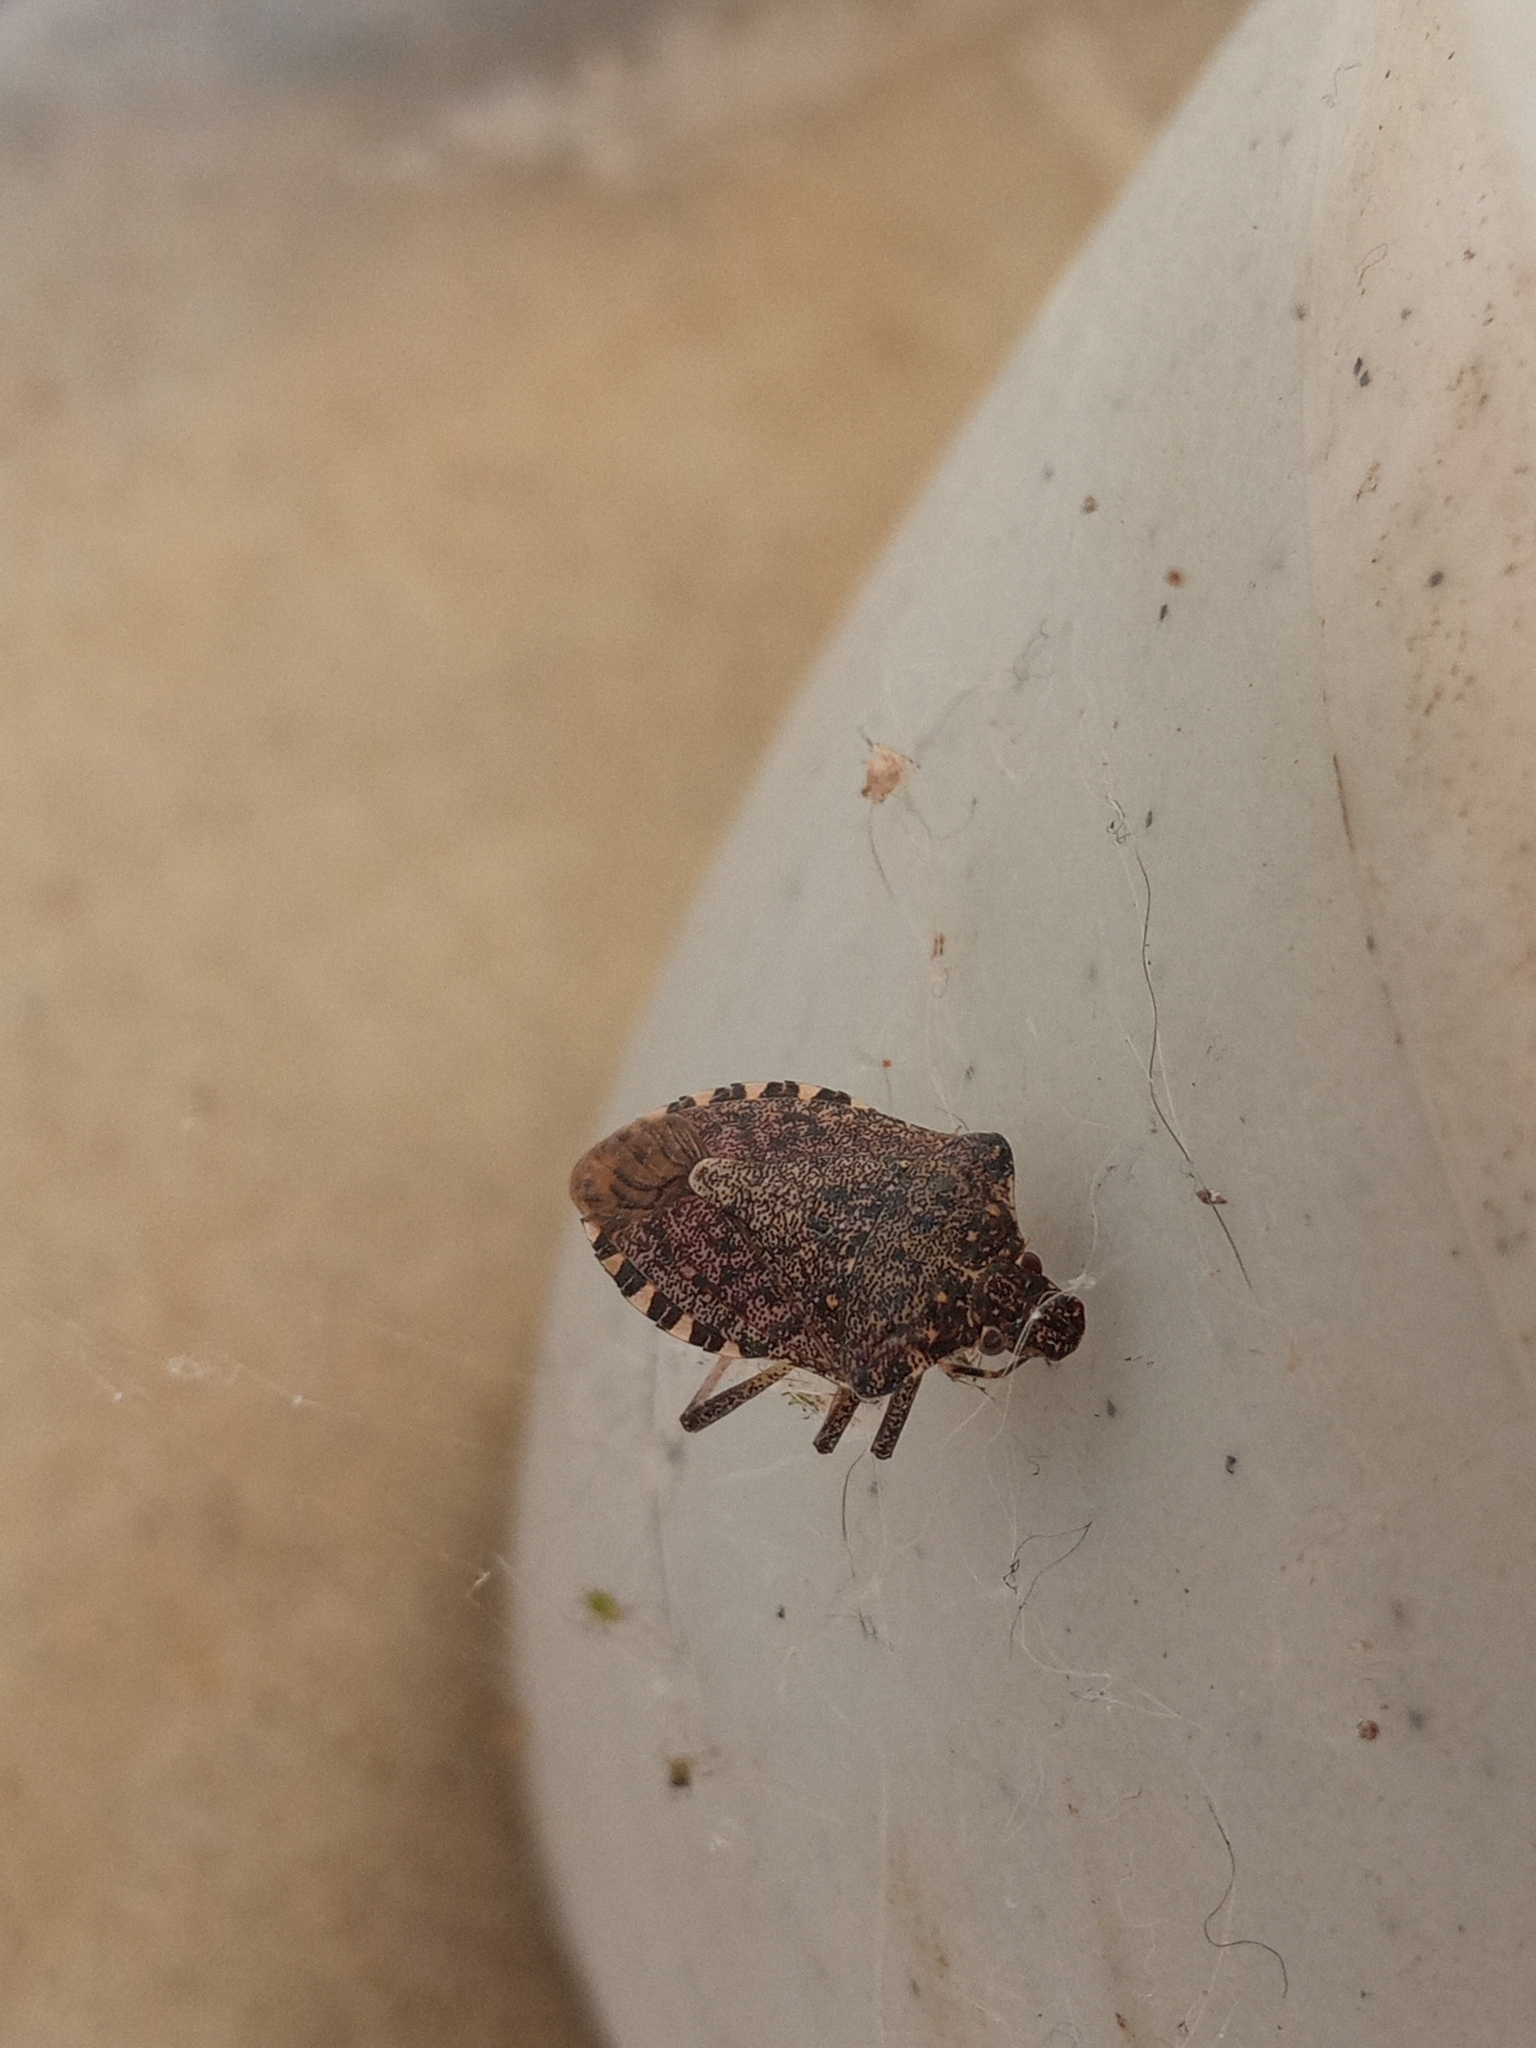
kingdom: Animalia
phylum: Arthropoda
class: Insecta
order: Hemiptera
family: Pentatomidae
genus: Halyomorpha
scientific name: Halyomorpha halys
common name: Brown marmorated stink bug
